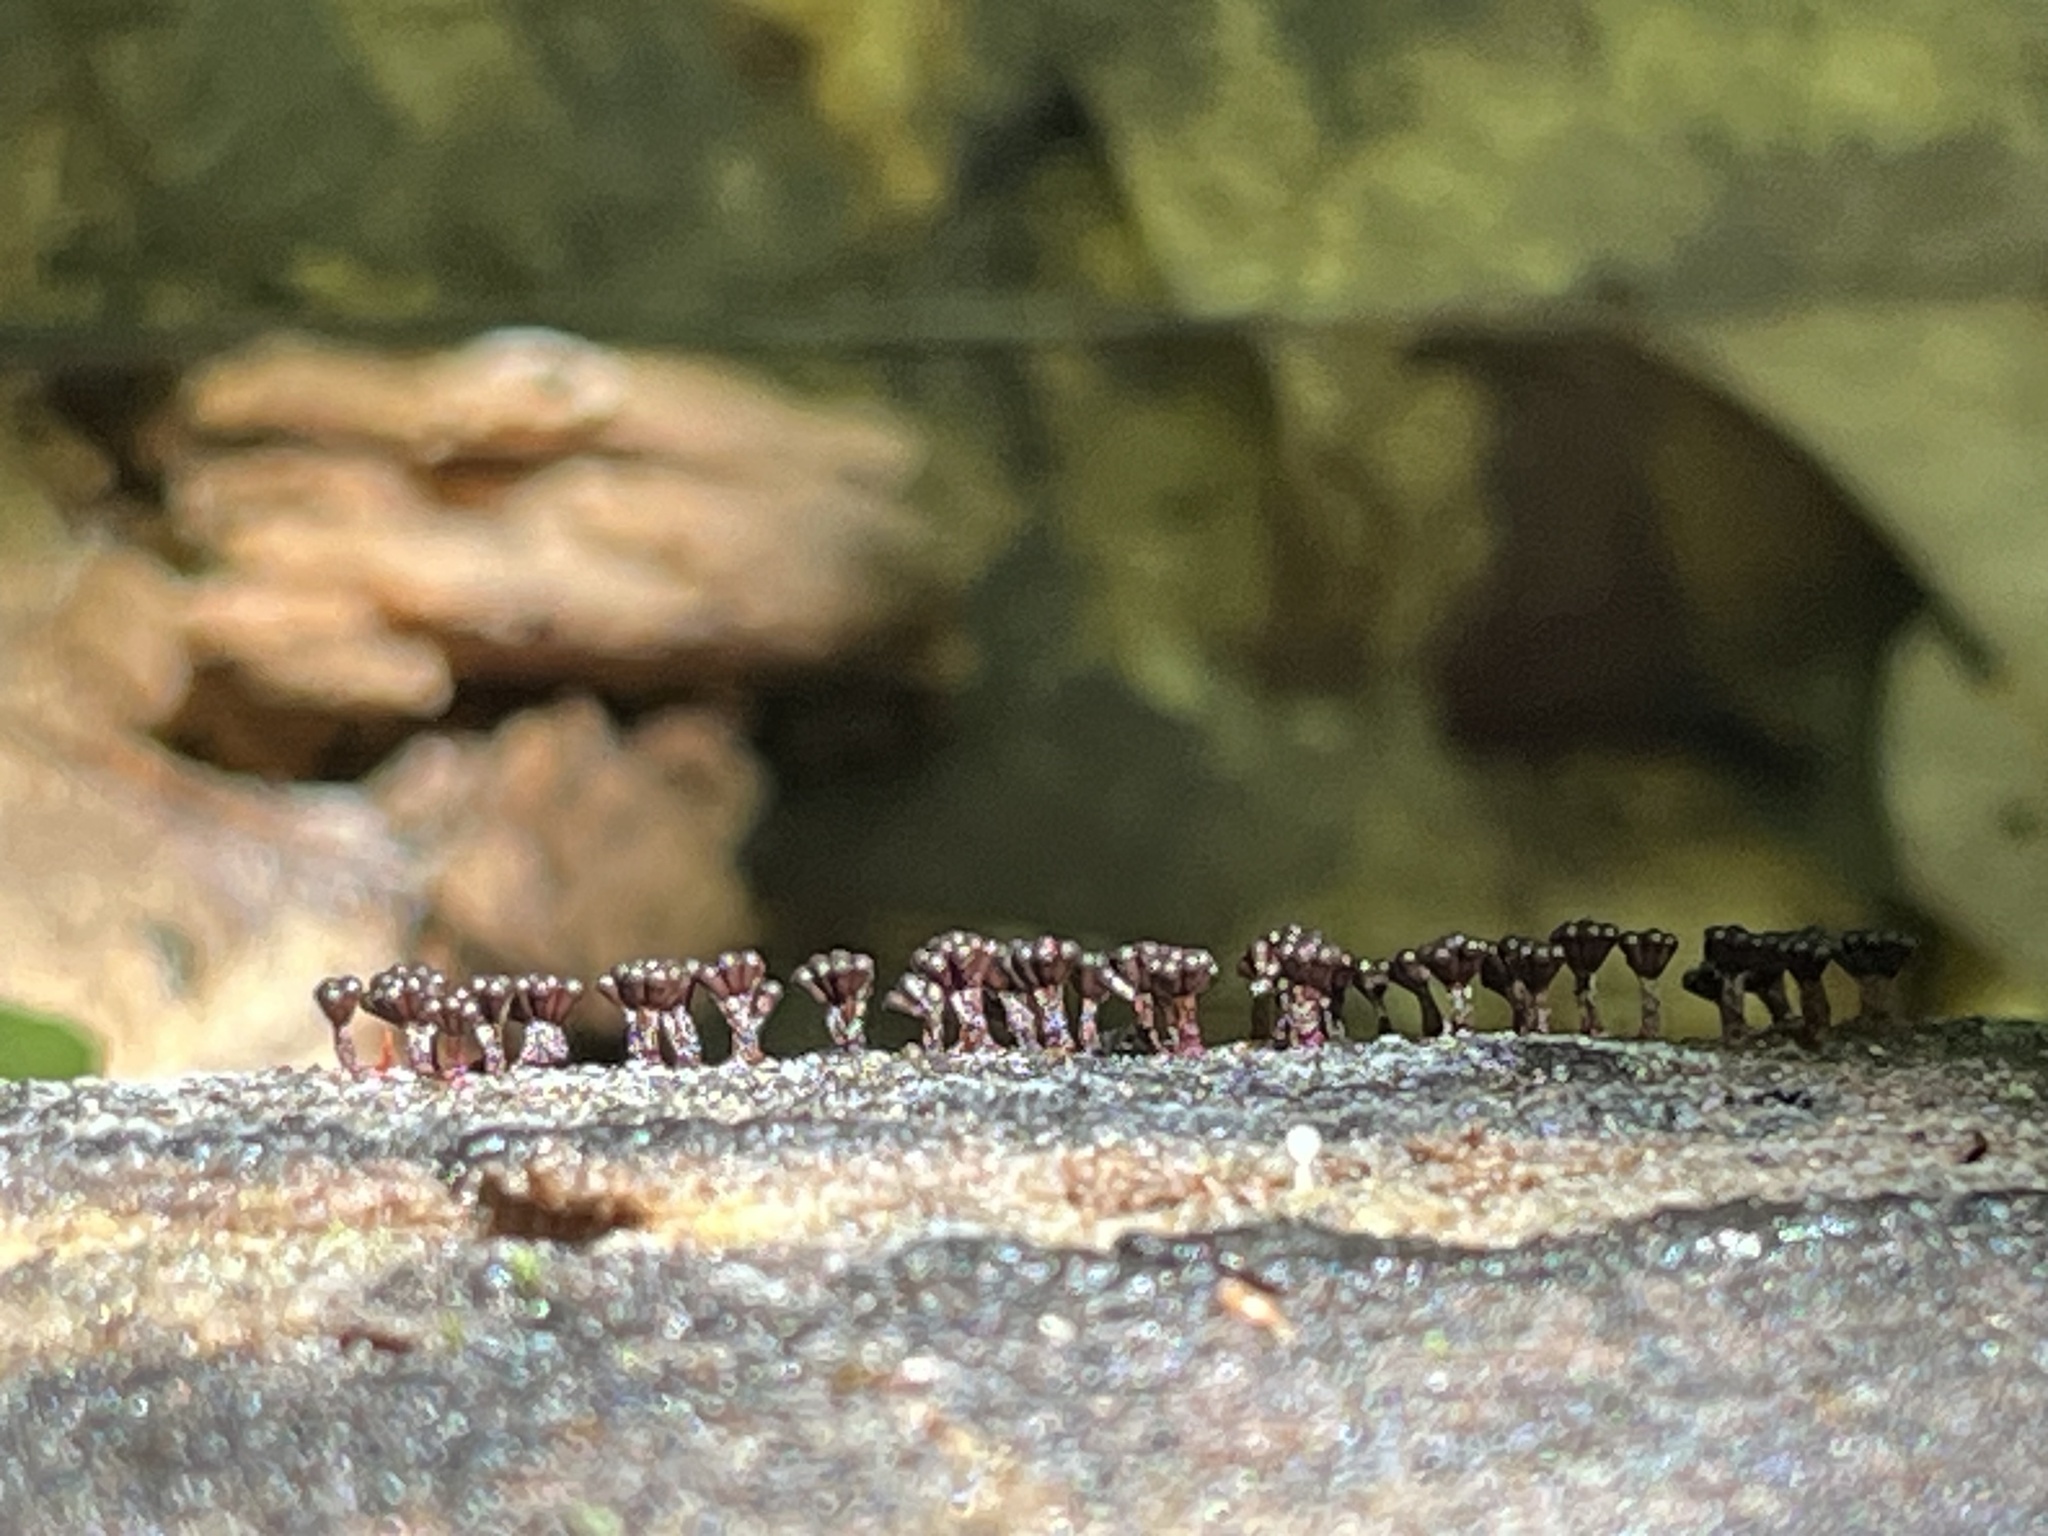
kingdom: Protozoa
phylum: Mycetozoa
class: Myxomycetes
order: Trichiales
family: Trichiaceae
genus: Metatrichia
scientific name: Metatrichia vesparia
